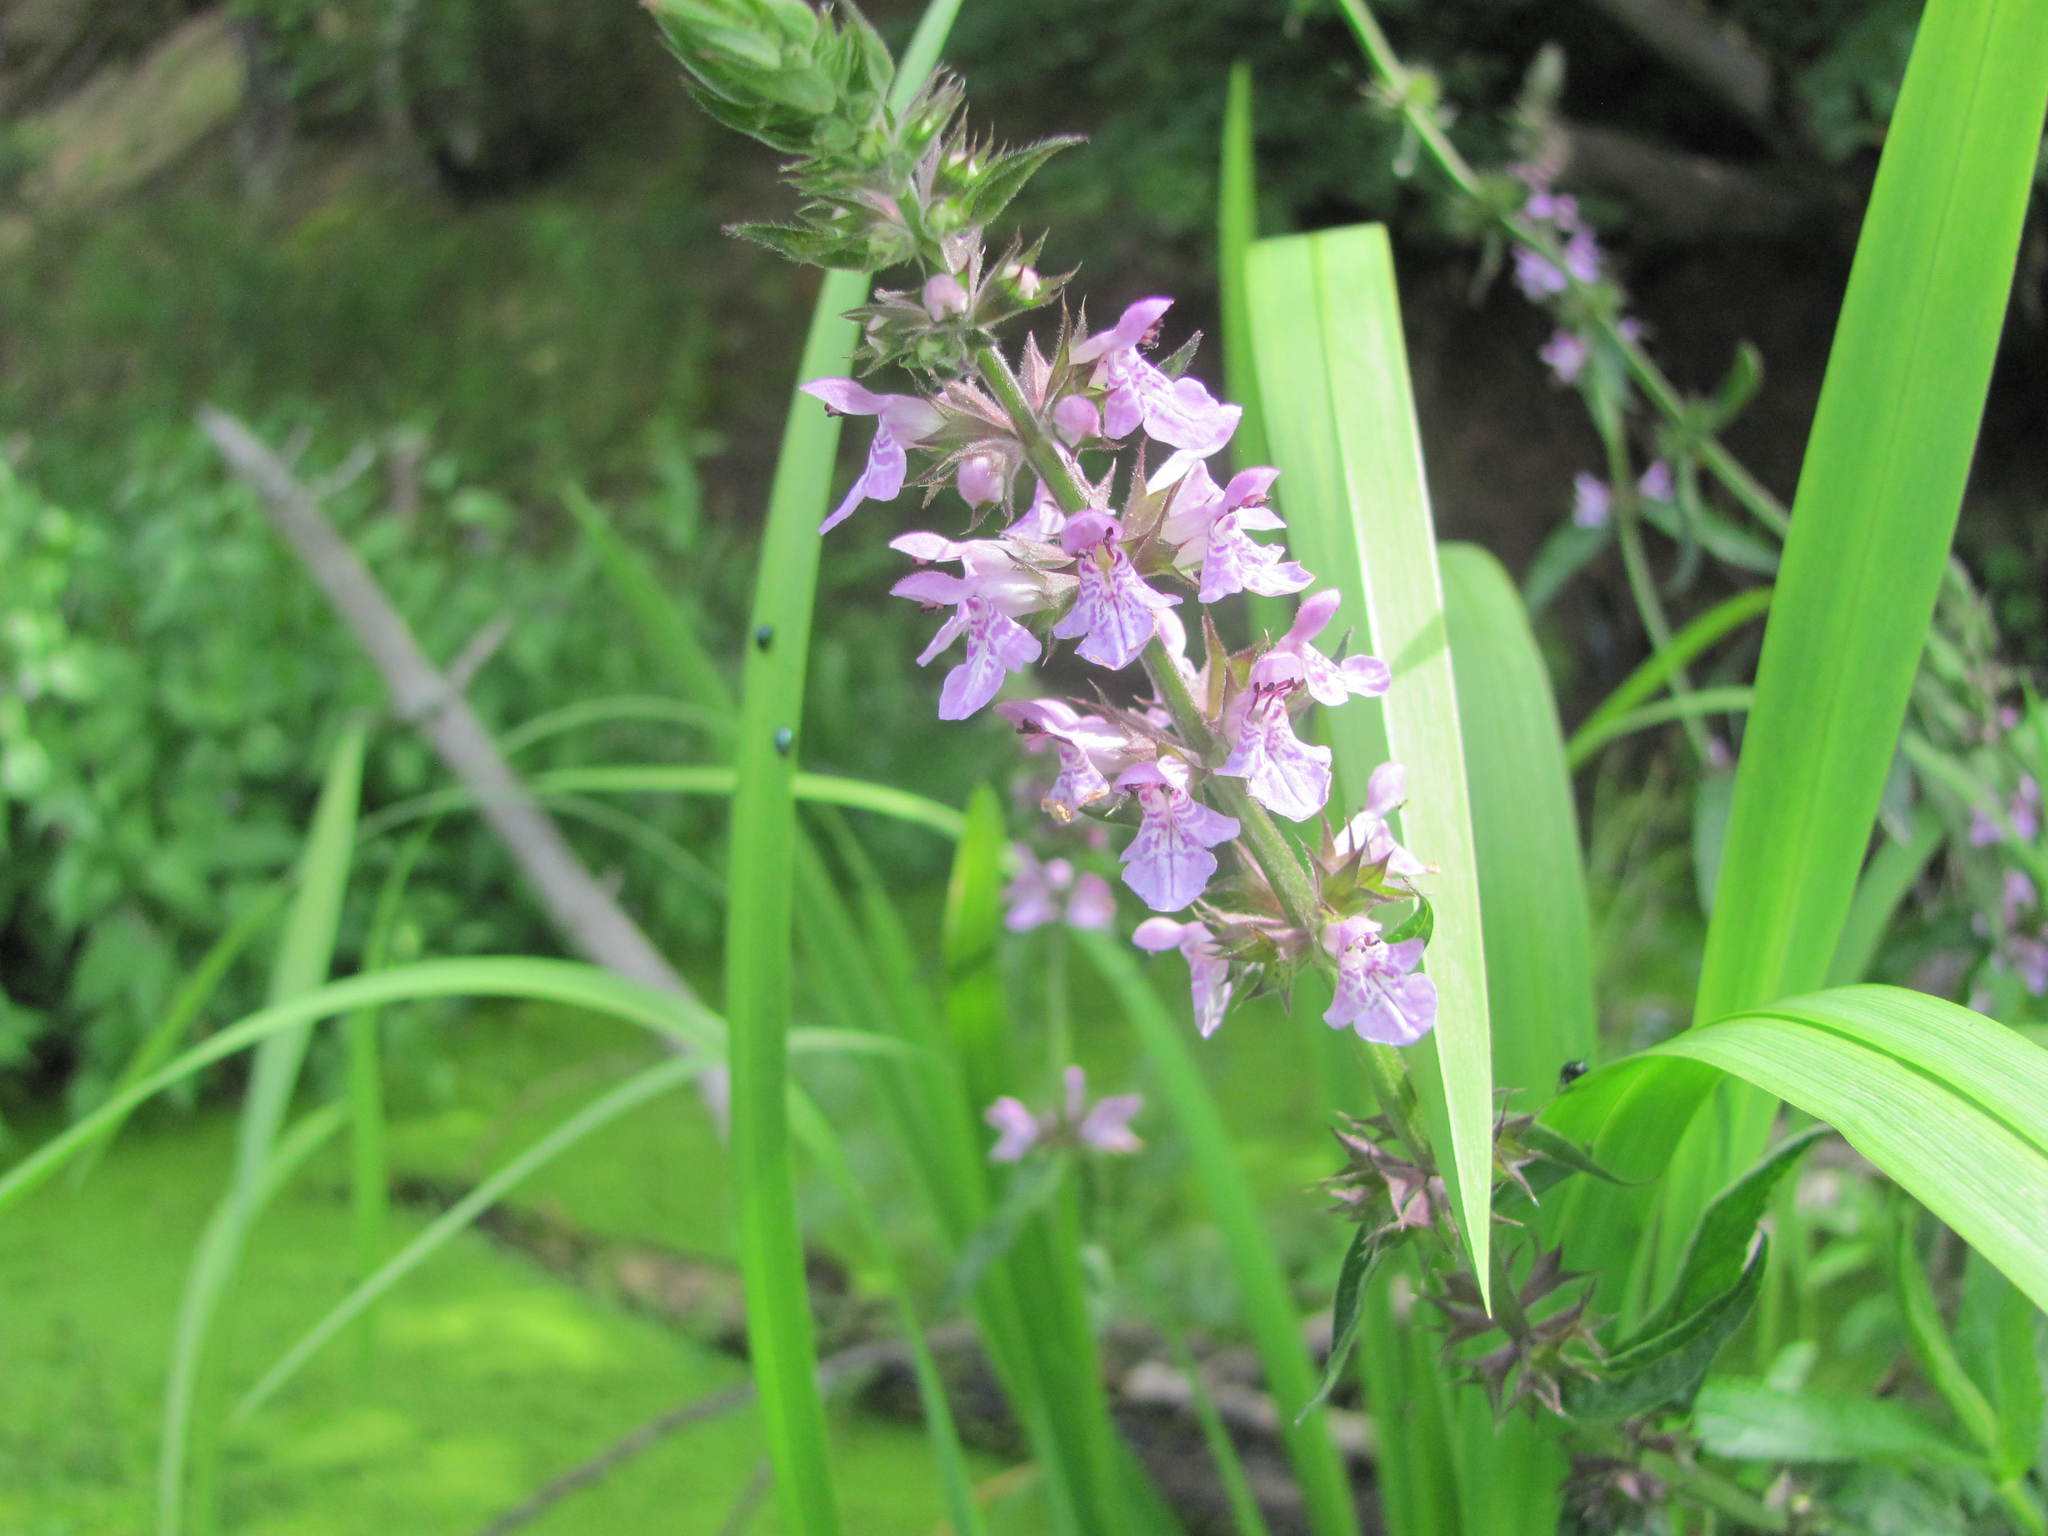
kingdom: Plantae
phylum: Tracheophyta
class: Magnoliopsida
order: Lamiales
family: Lamiaceae
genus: Stachys
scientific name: Stachys palustris
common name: Marsh woundwort
